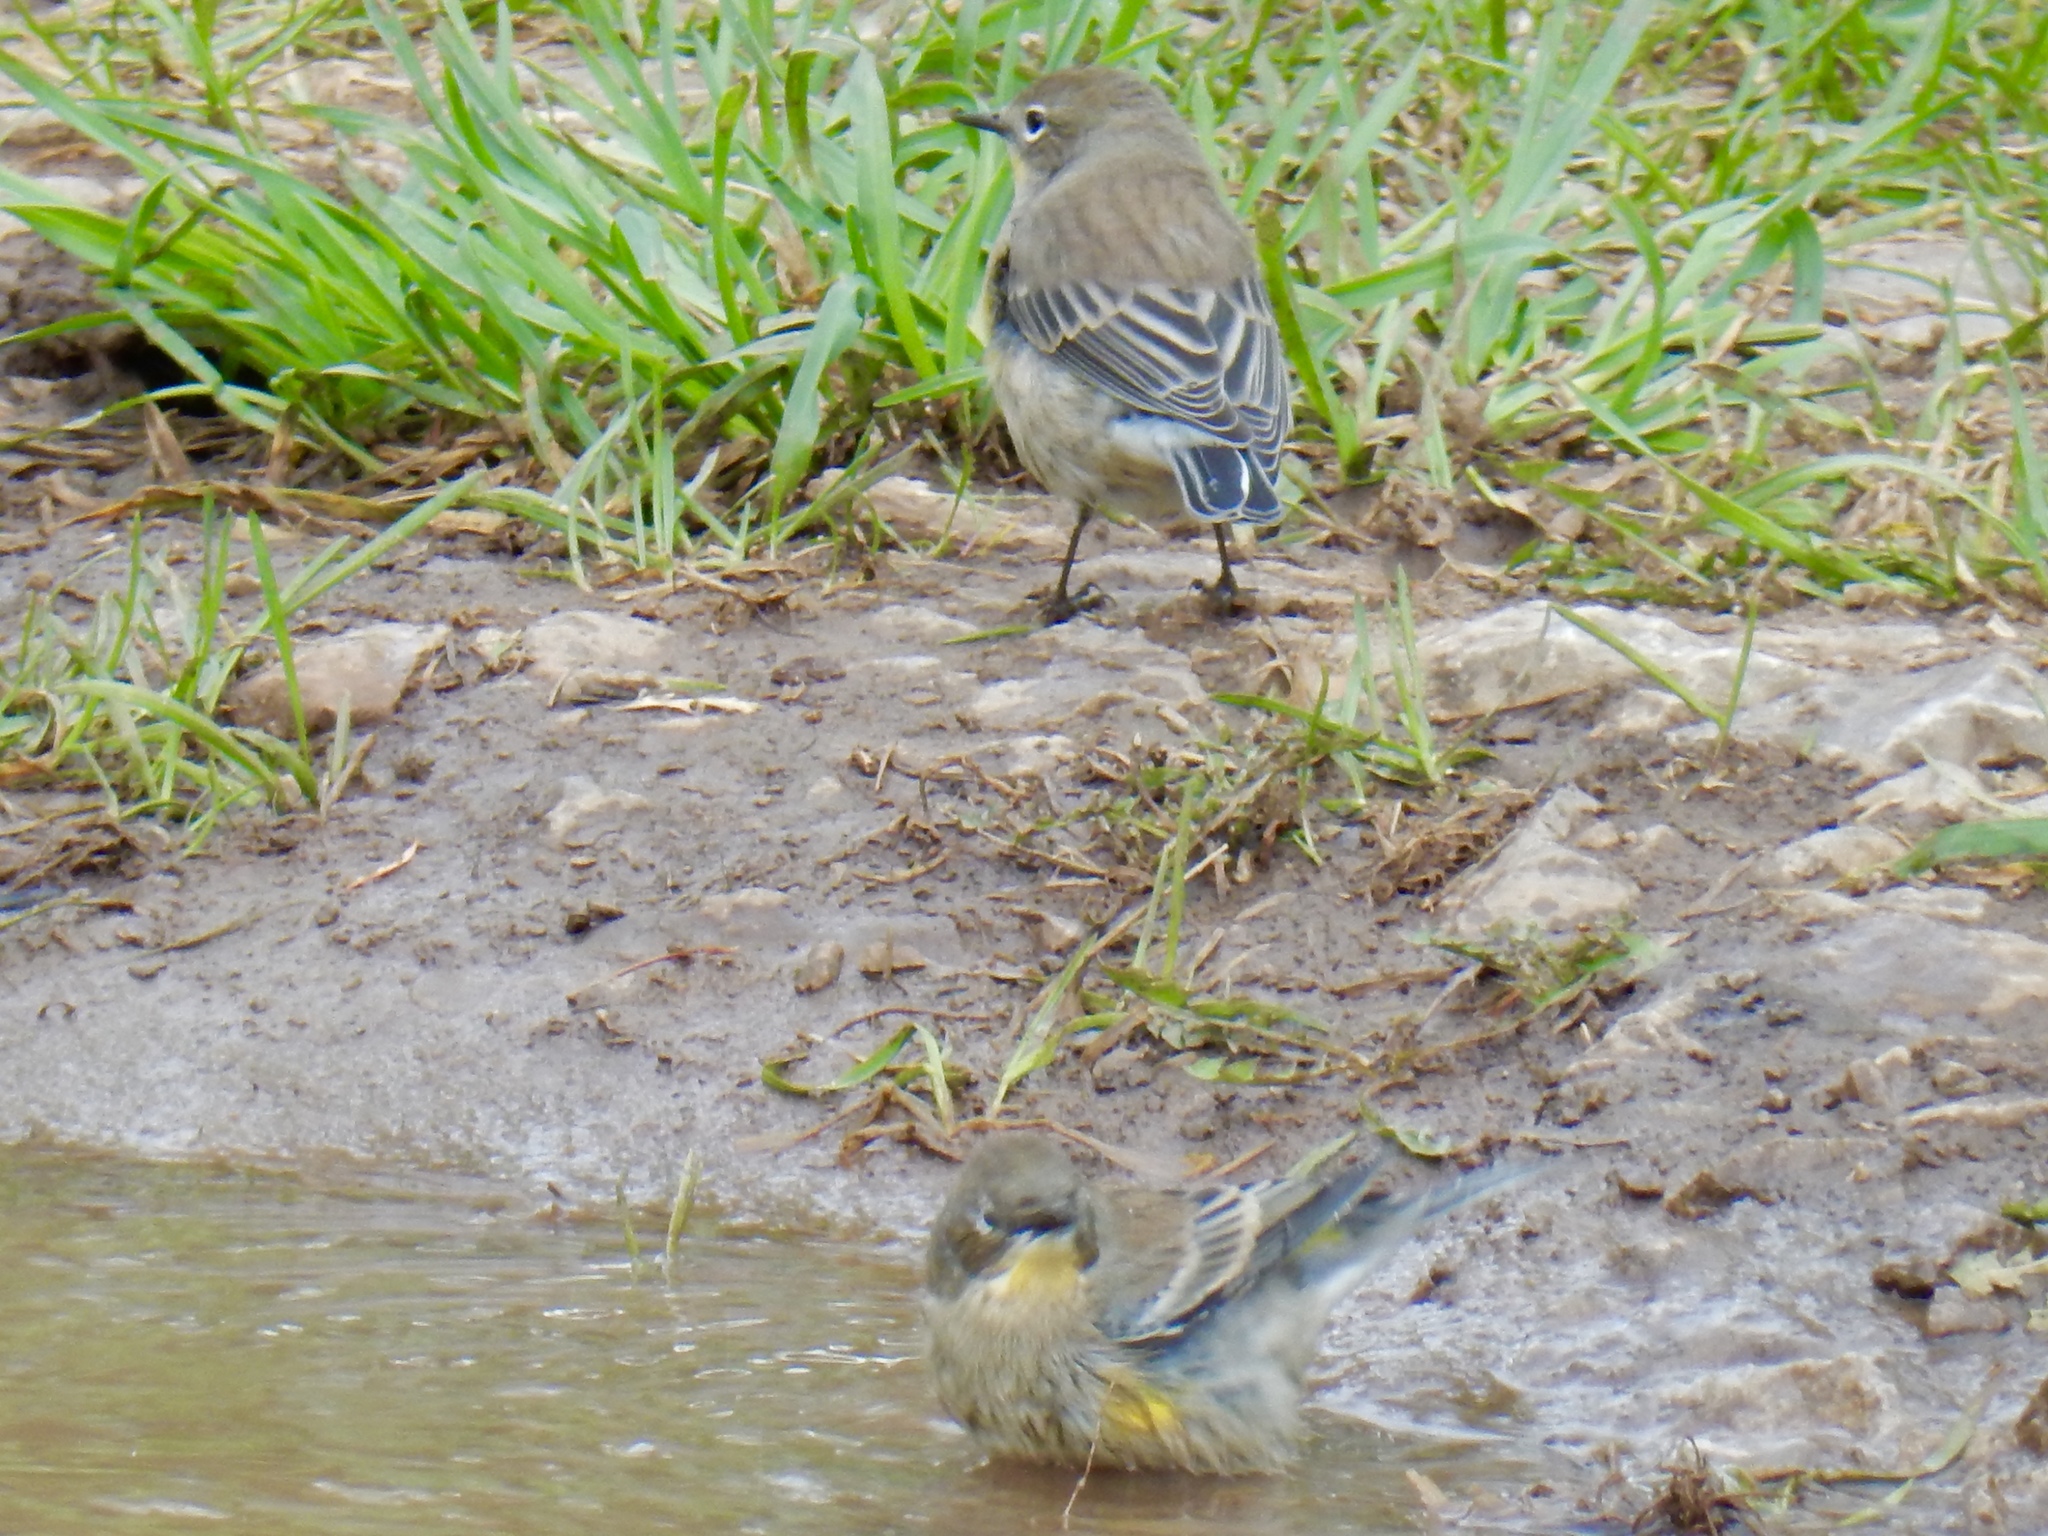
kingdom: Animalia
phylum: Chordata
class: Aves
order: Passeriformes
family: Parulidae
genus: Setophaga
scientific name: Setophaga coronata
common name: Myrtle warbler
